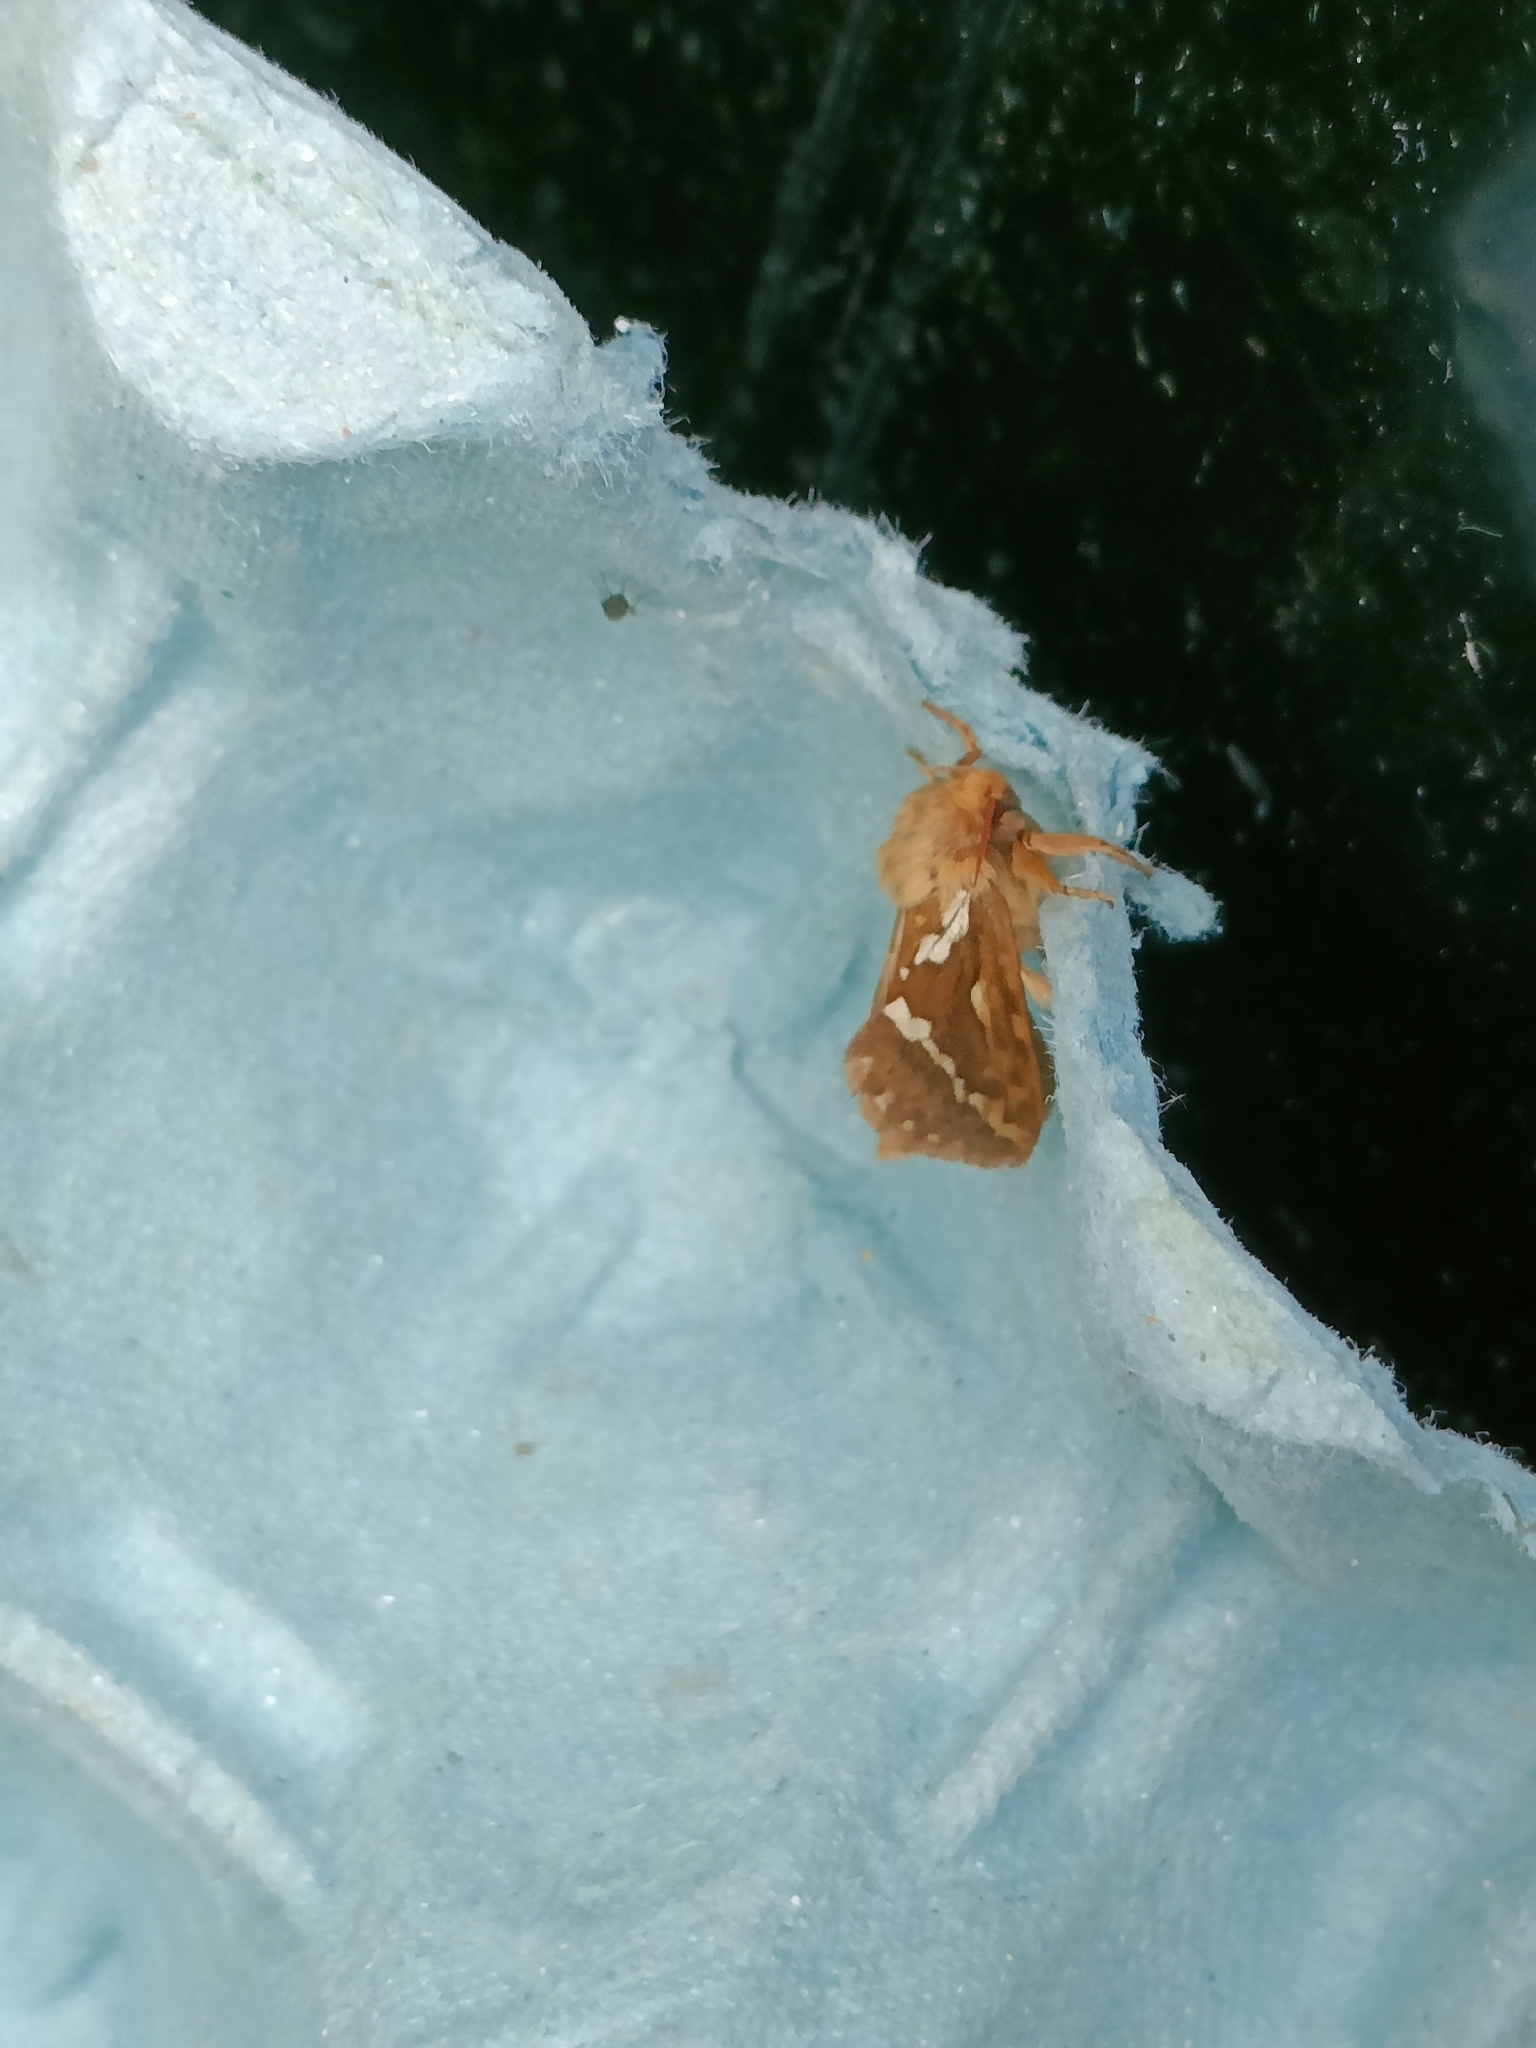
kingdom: Animalia
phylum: Arthropoda
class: Insecta
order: Lepidoptera
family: Hepialidae
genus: Korscheltellus
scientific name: Korscheltellus lupulina
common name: Common swift
